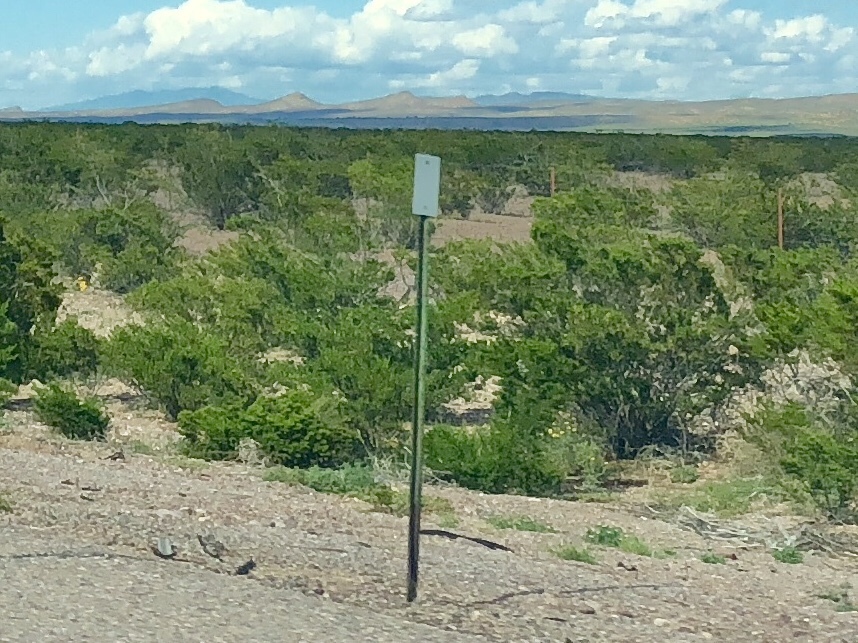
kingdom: Plantae
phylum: Tracheophyta
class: Magnoliopsida
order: Zygophyllales
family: Zygophyllaceae
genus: Larrea
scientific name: Larrea tridentata
